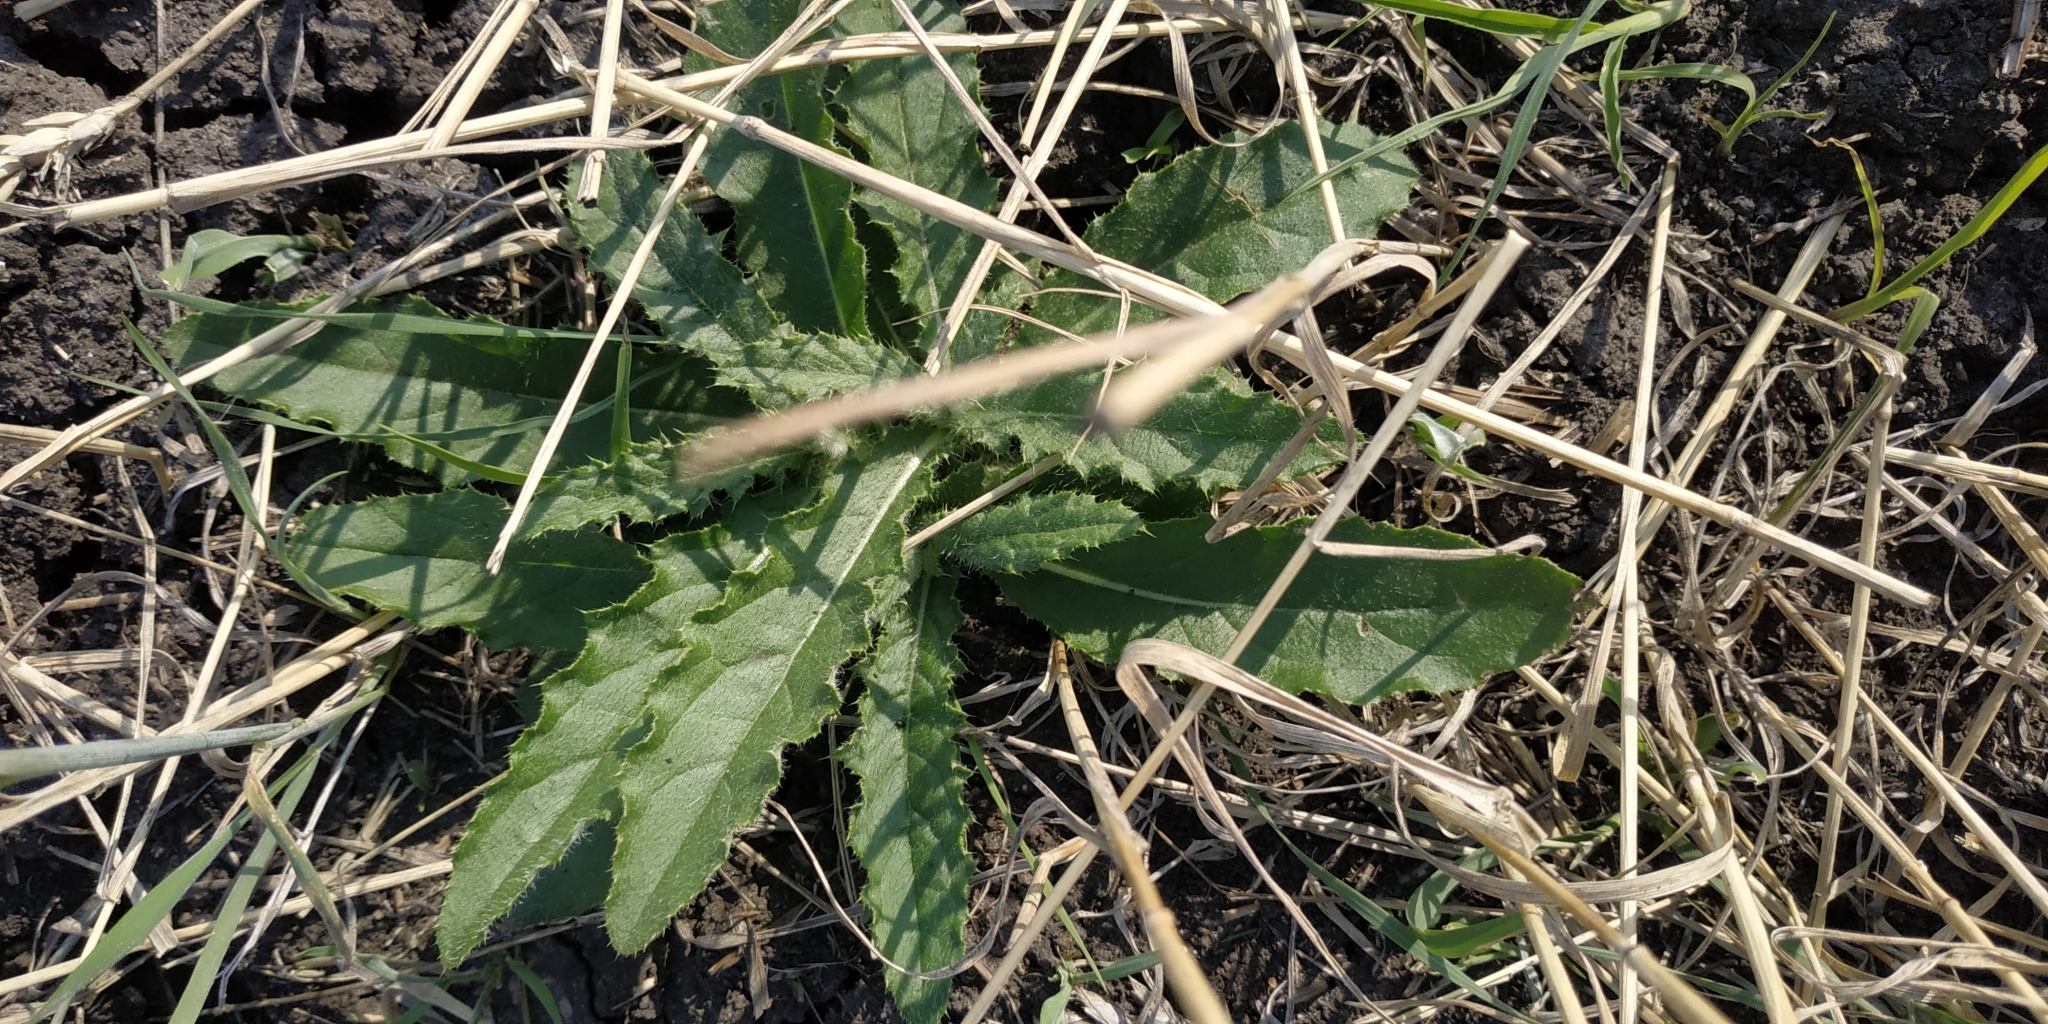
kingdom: Plantae
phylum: Tracheophyta
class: Magnoliopsida
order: Asterales
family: Asteraceae
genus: Cirsium
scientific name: Cirsium arvense
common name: Creeping thistle
